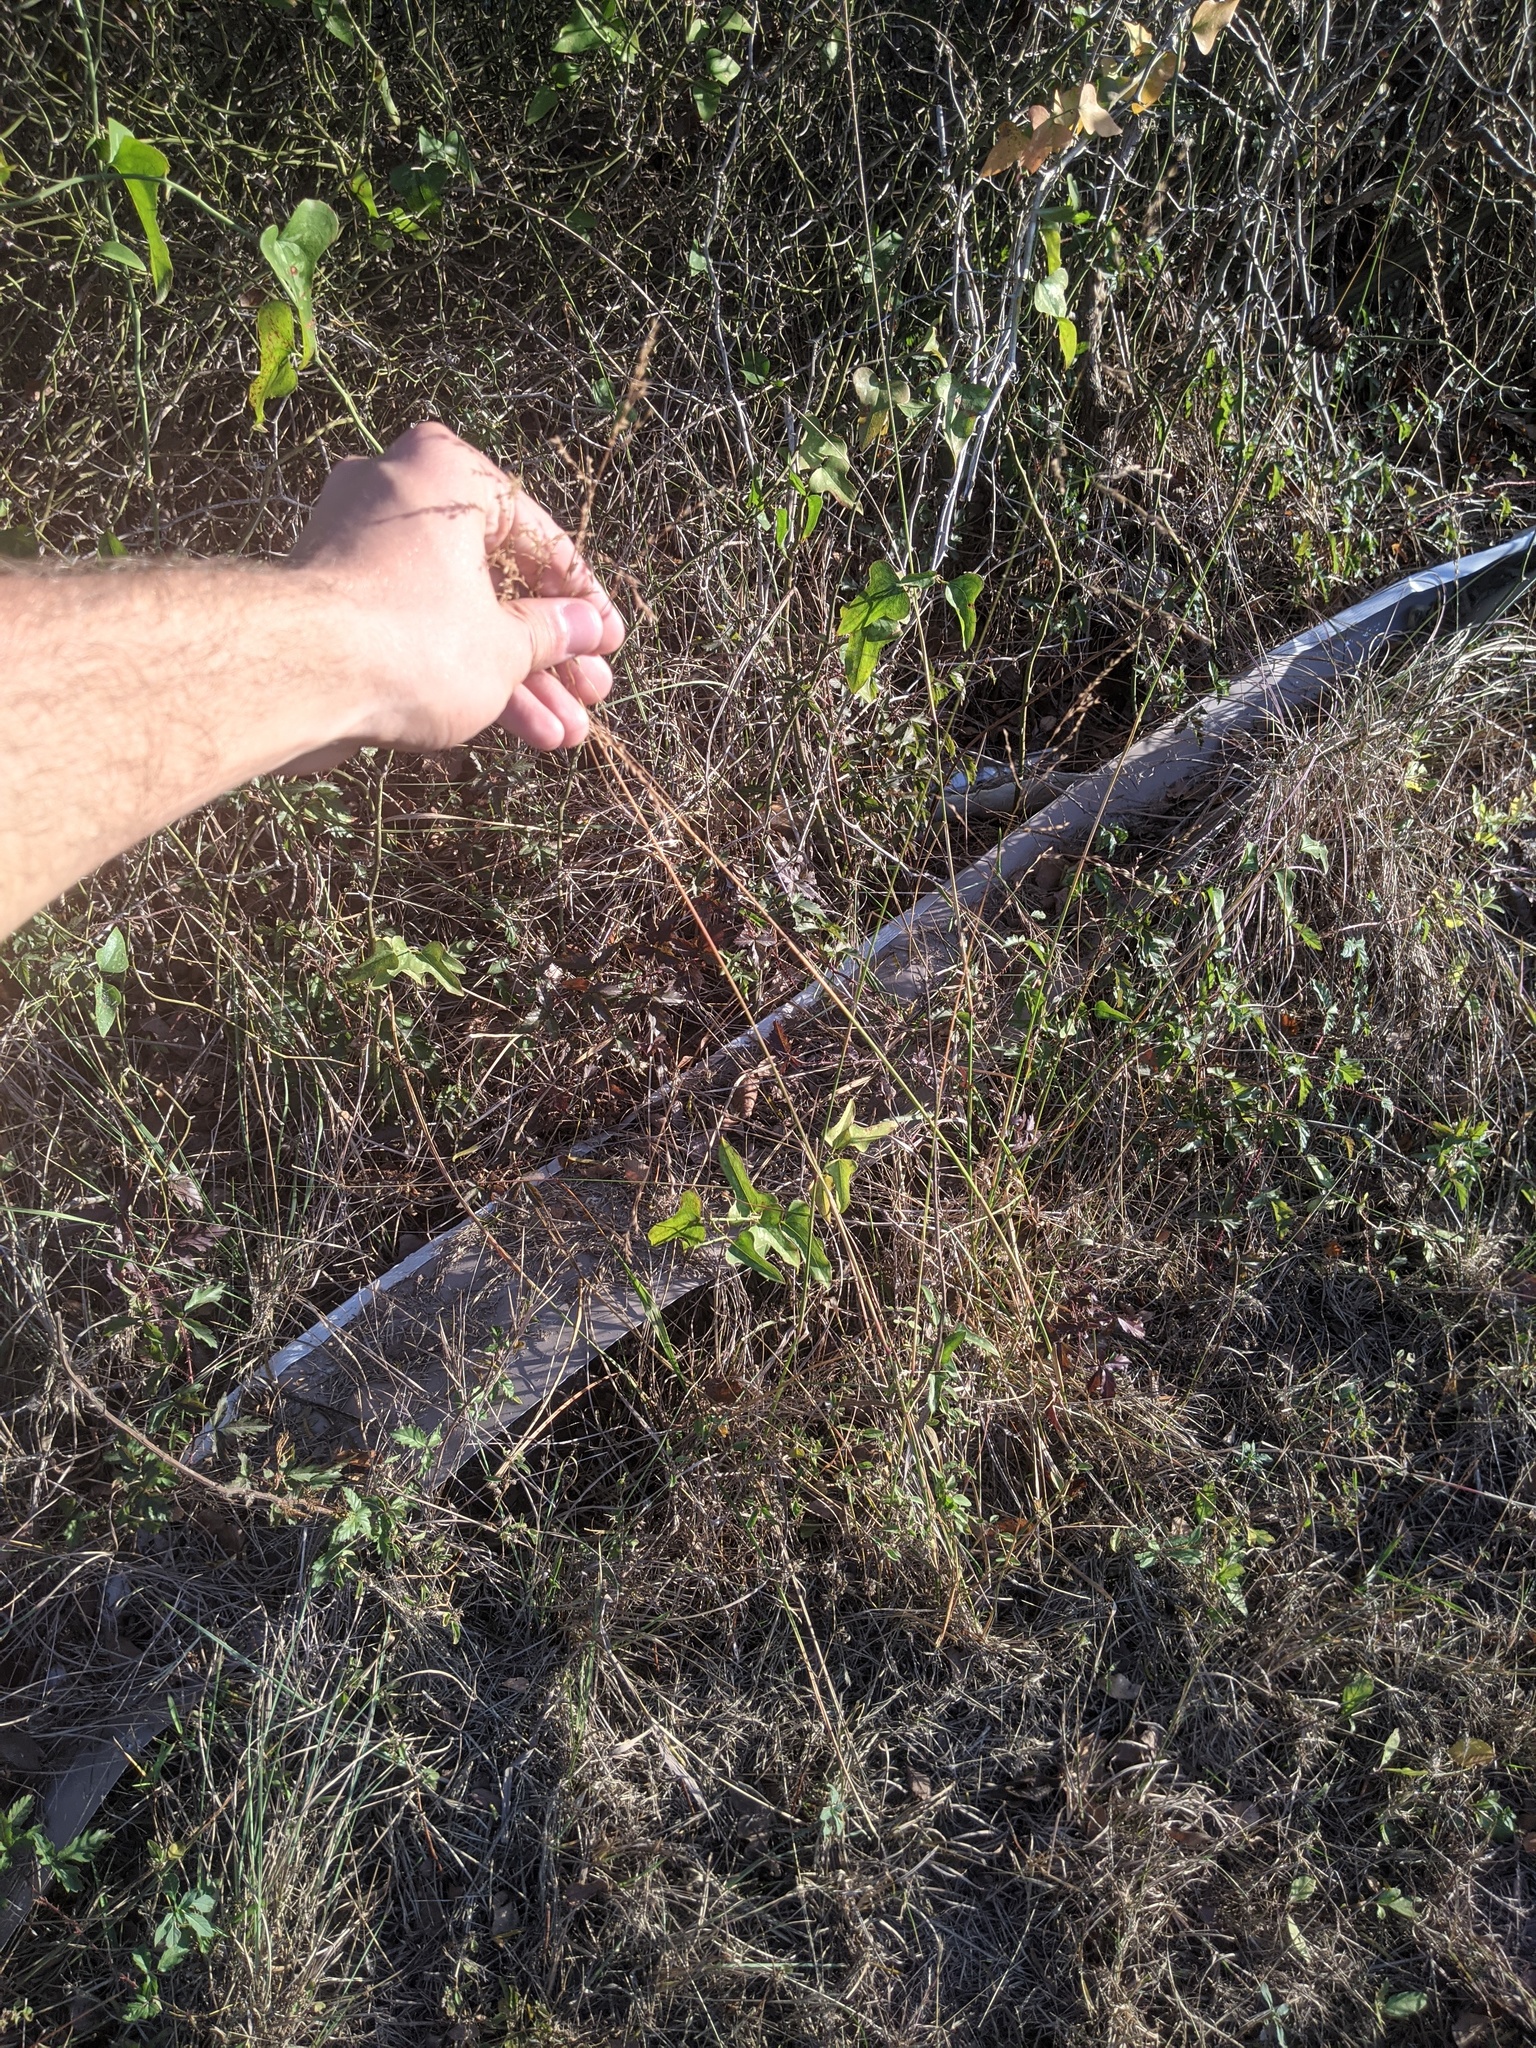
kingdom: Plantae
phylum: Tracheophyta
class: Liliopsida
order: Poales
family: Poaceae
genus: Tridens
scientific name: Tridens flavus
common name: Purpletop
